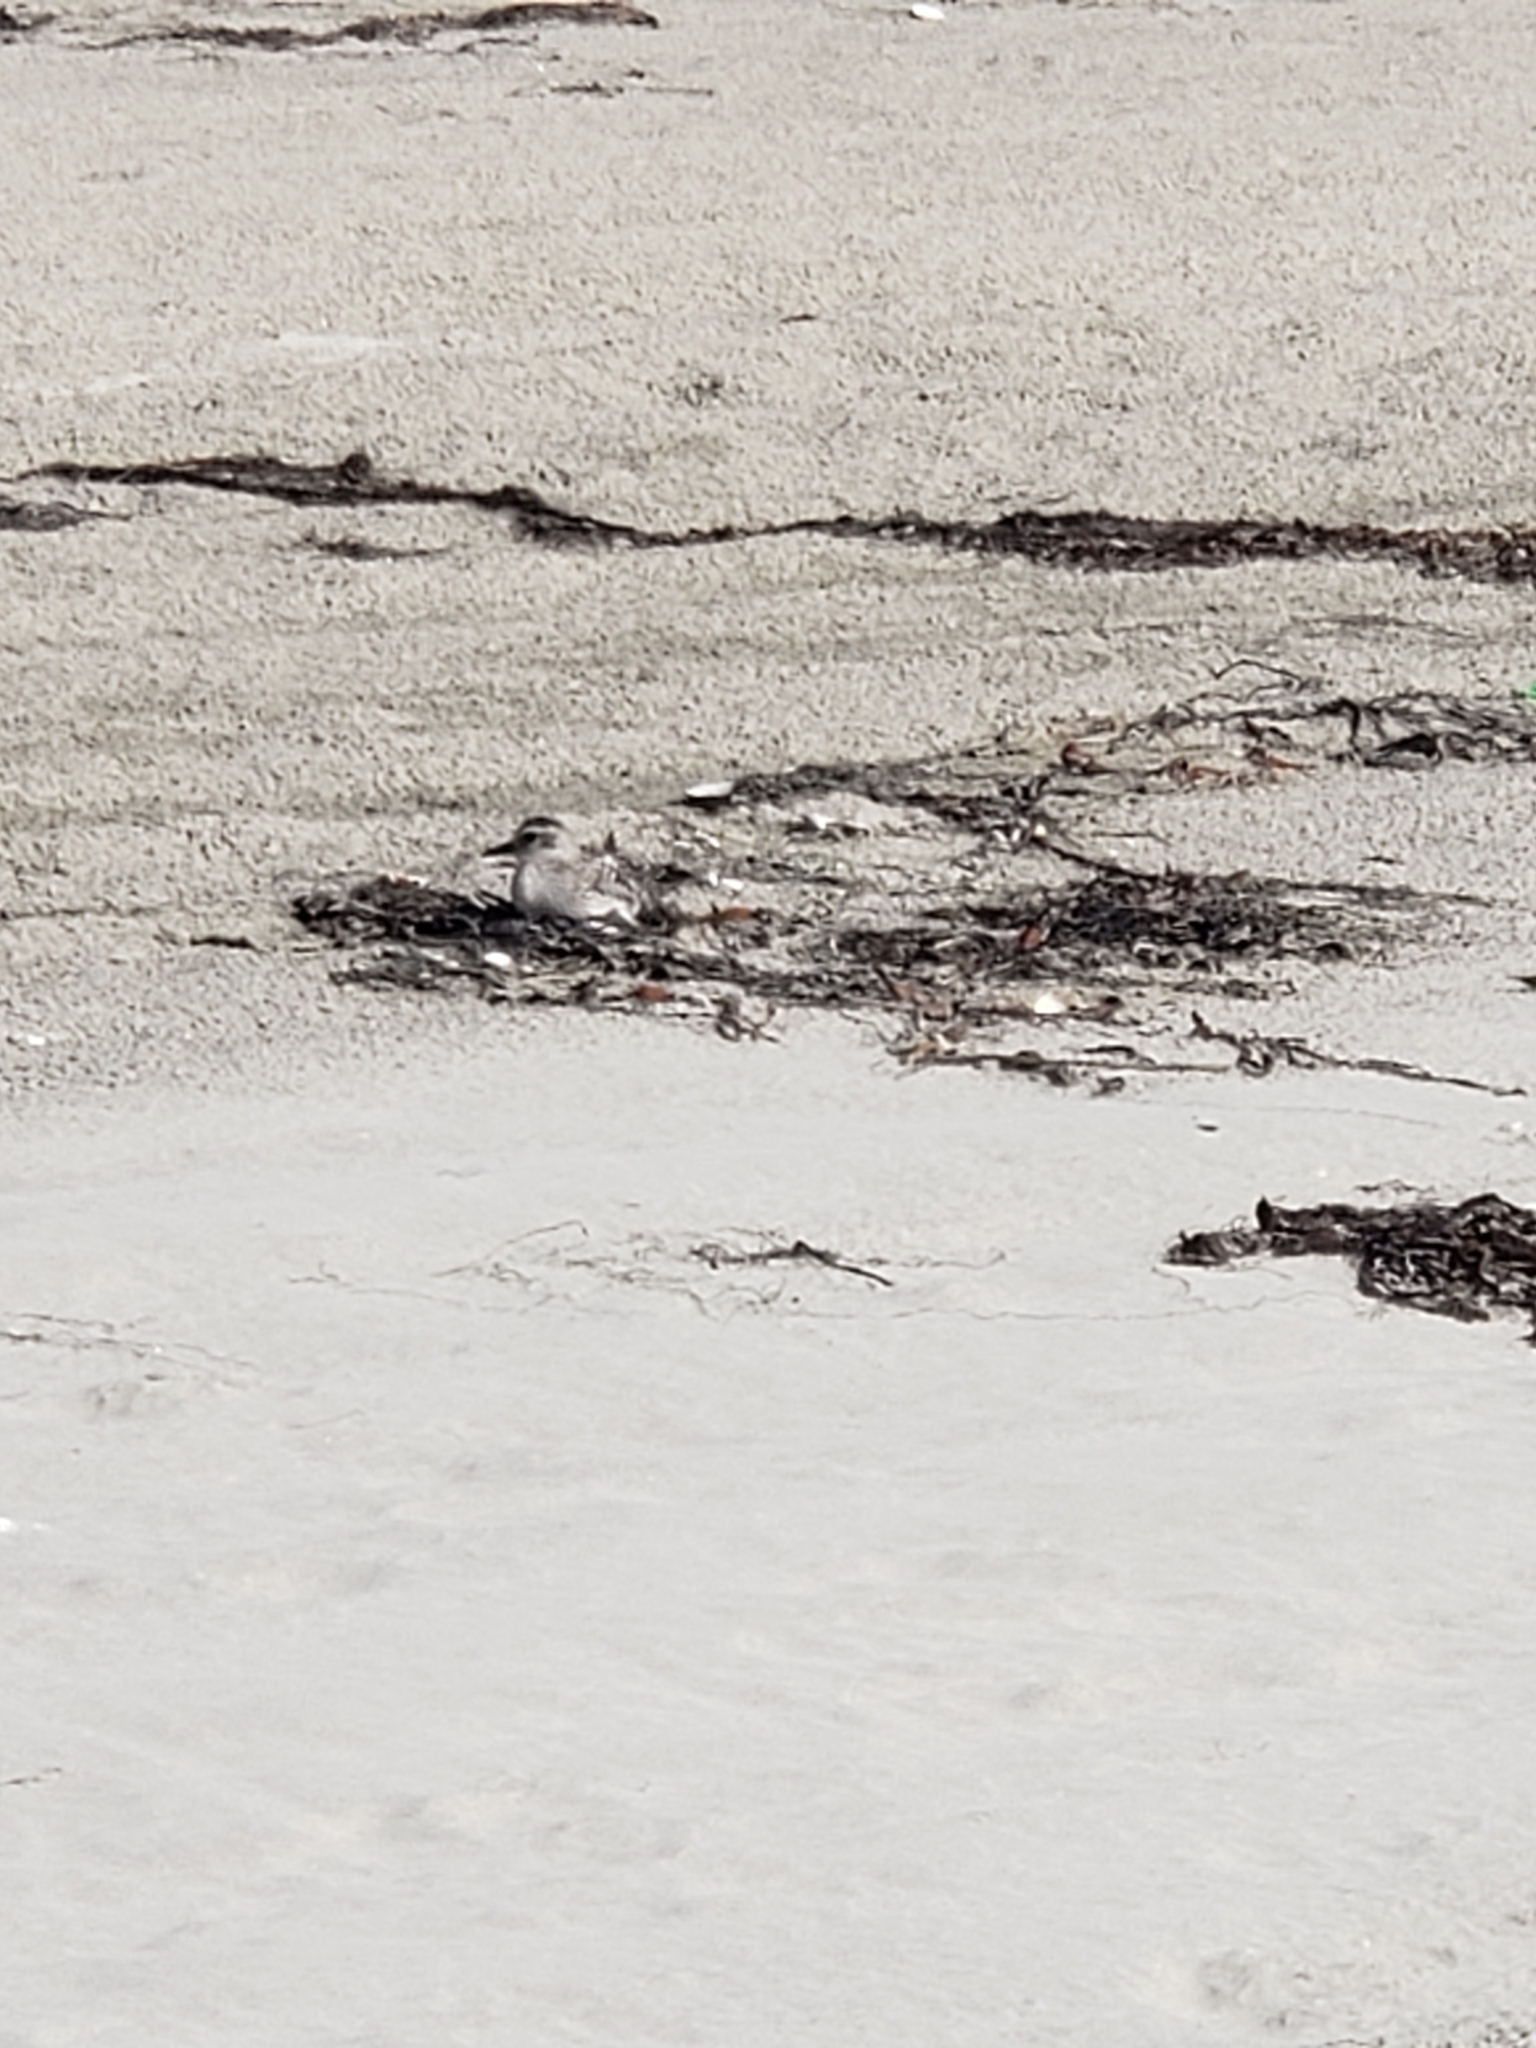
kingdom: Animalia
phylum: Chordata
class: Aves
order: Charadriiformes
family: Charadriidae
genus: Pluvialis
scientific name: Pluvialis squatarola
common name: Grey plover
